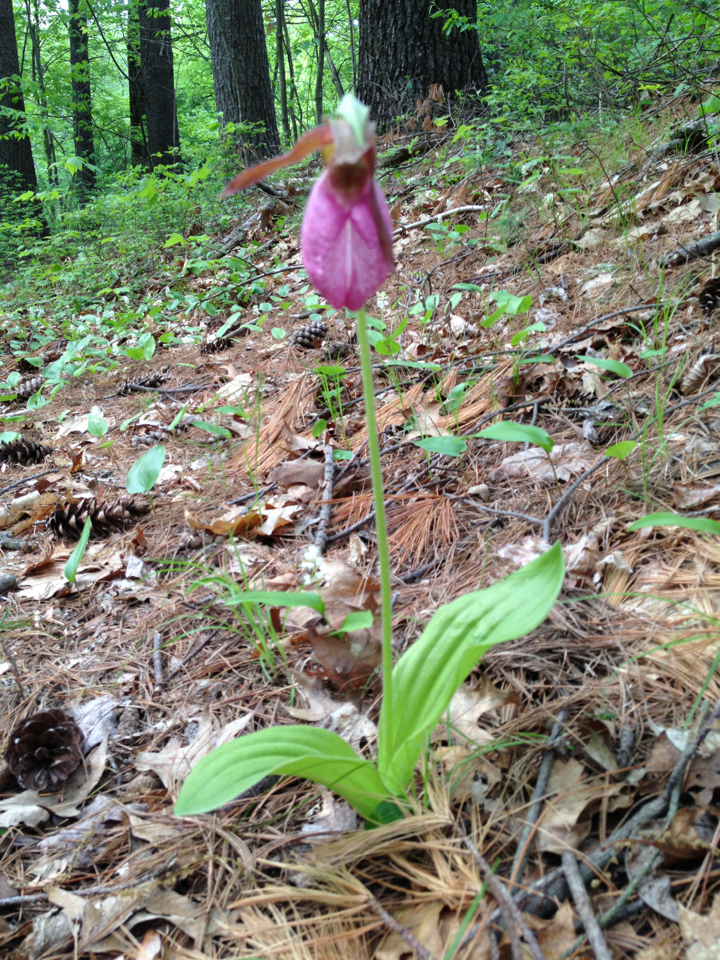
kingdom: Plantae
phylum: Tracheophyta
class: Liliopsida
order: Asparagales
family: Orchidaceae
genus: Cypripedium
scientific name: Cypripedium acaule
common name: Pink lady's-slipper
